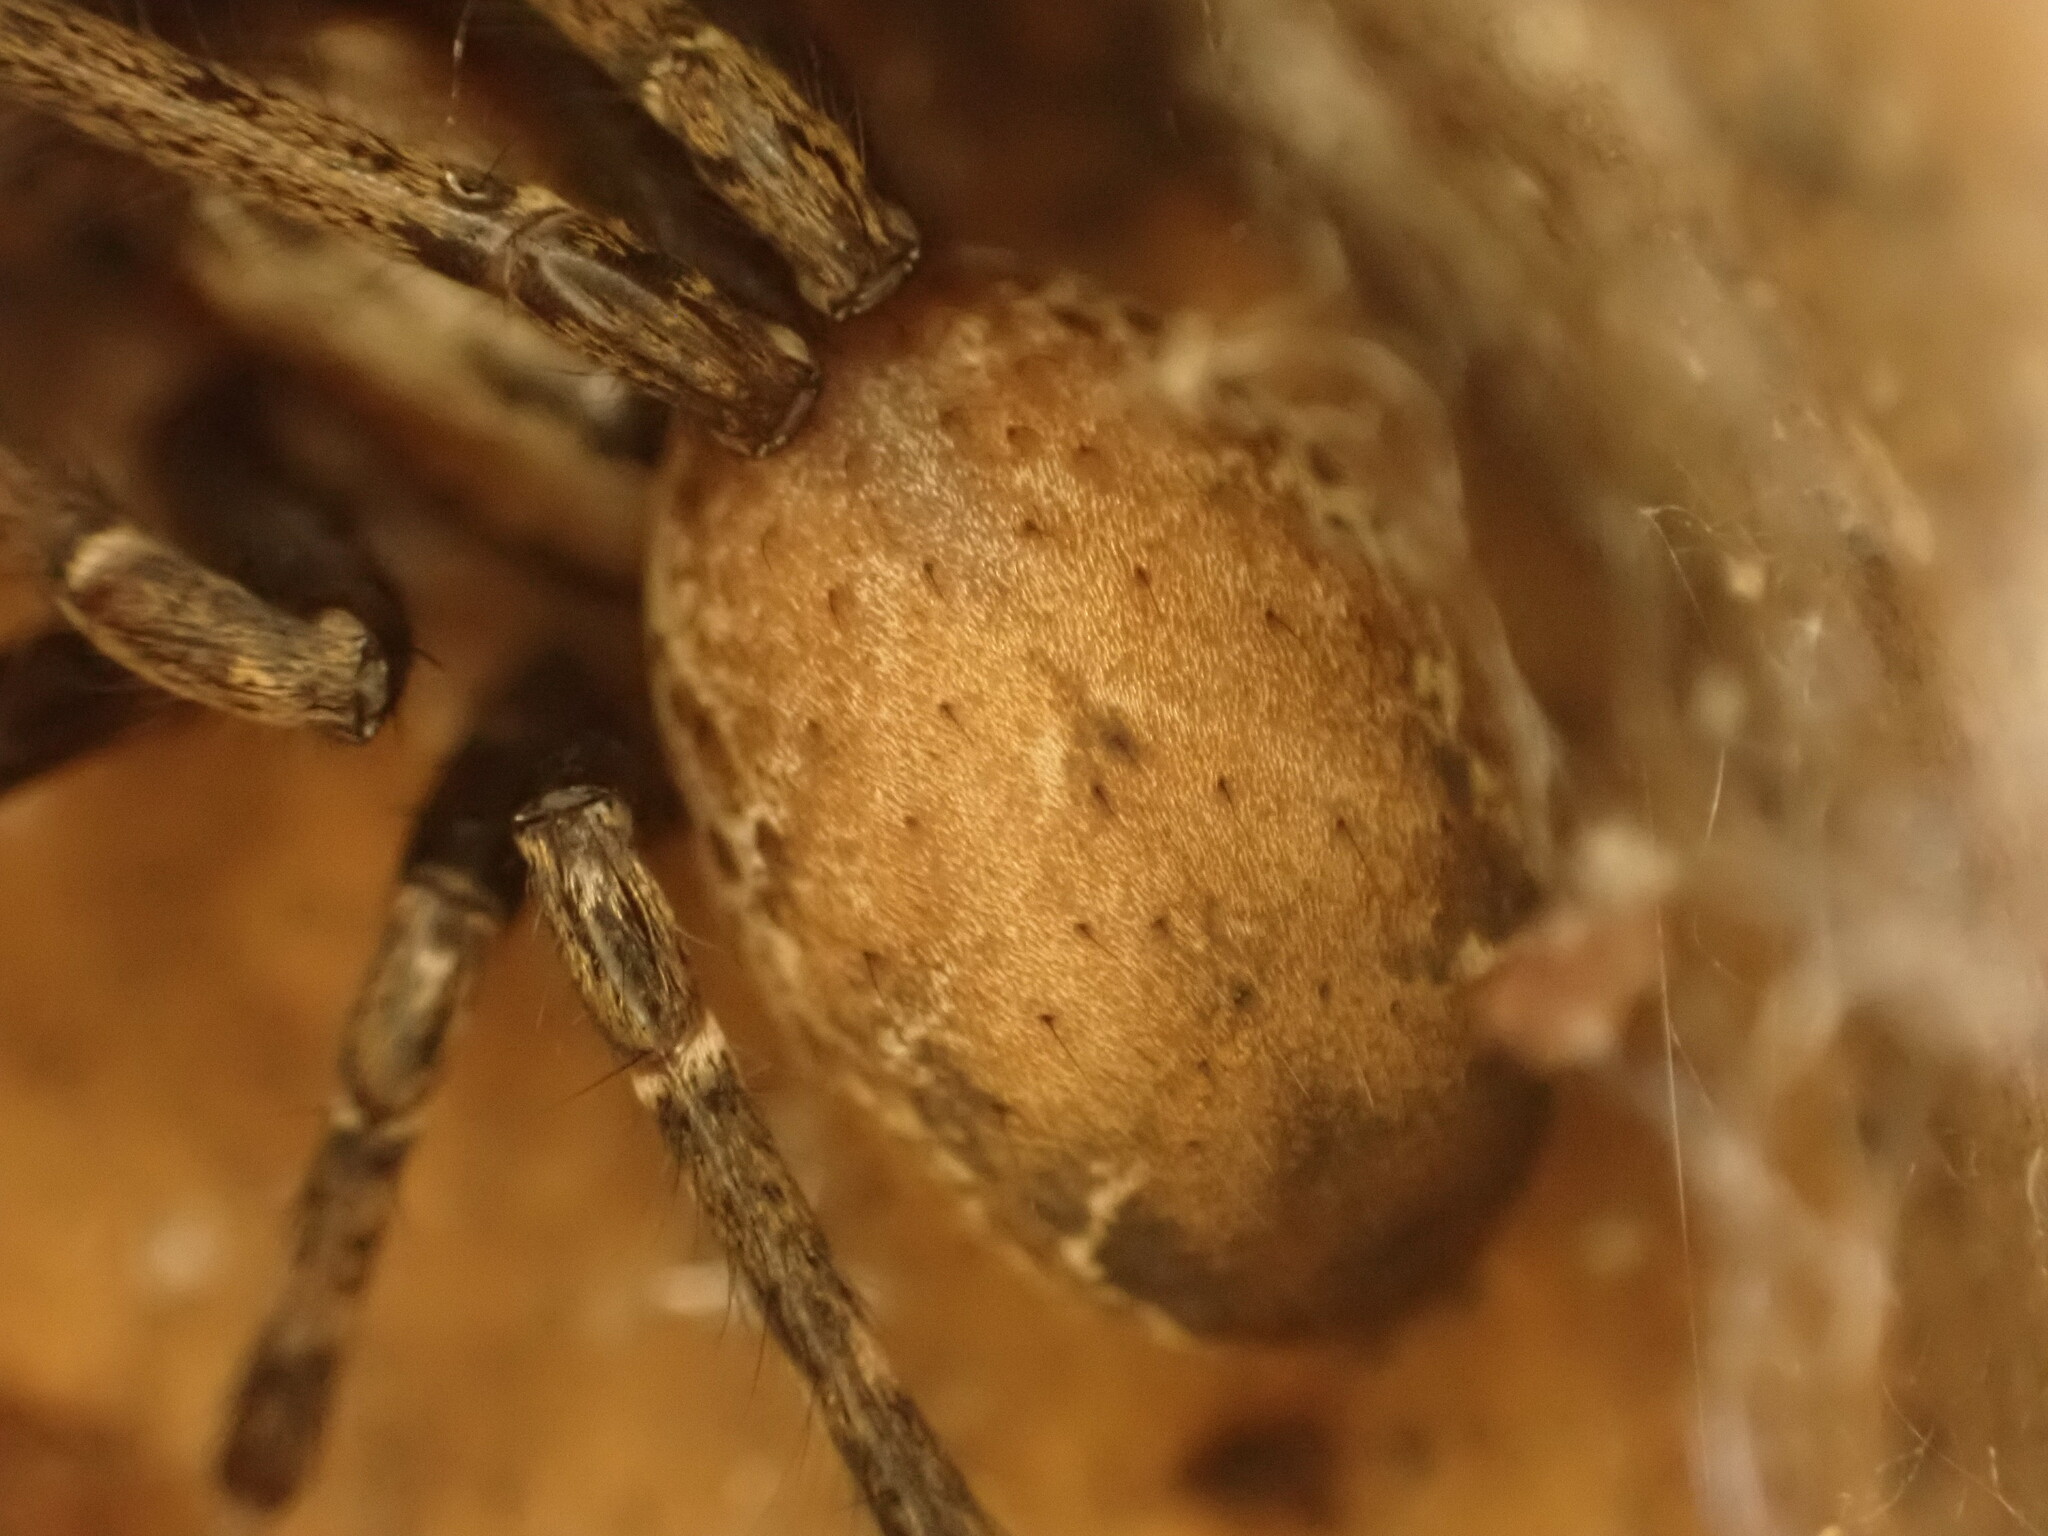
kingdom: Animalia
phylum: Arthropoda
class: Arachnida
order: Araneae
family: Desidae
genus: Cambridgea
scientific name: Cambridgea foliata
